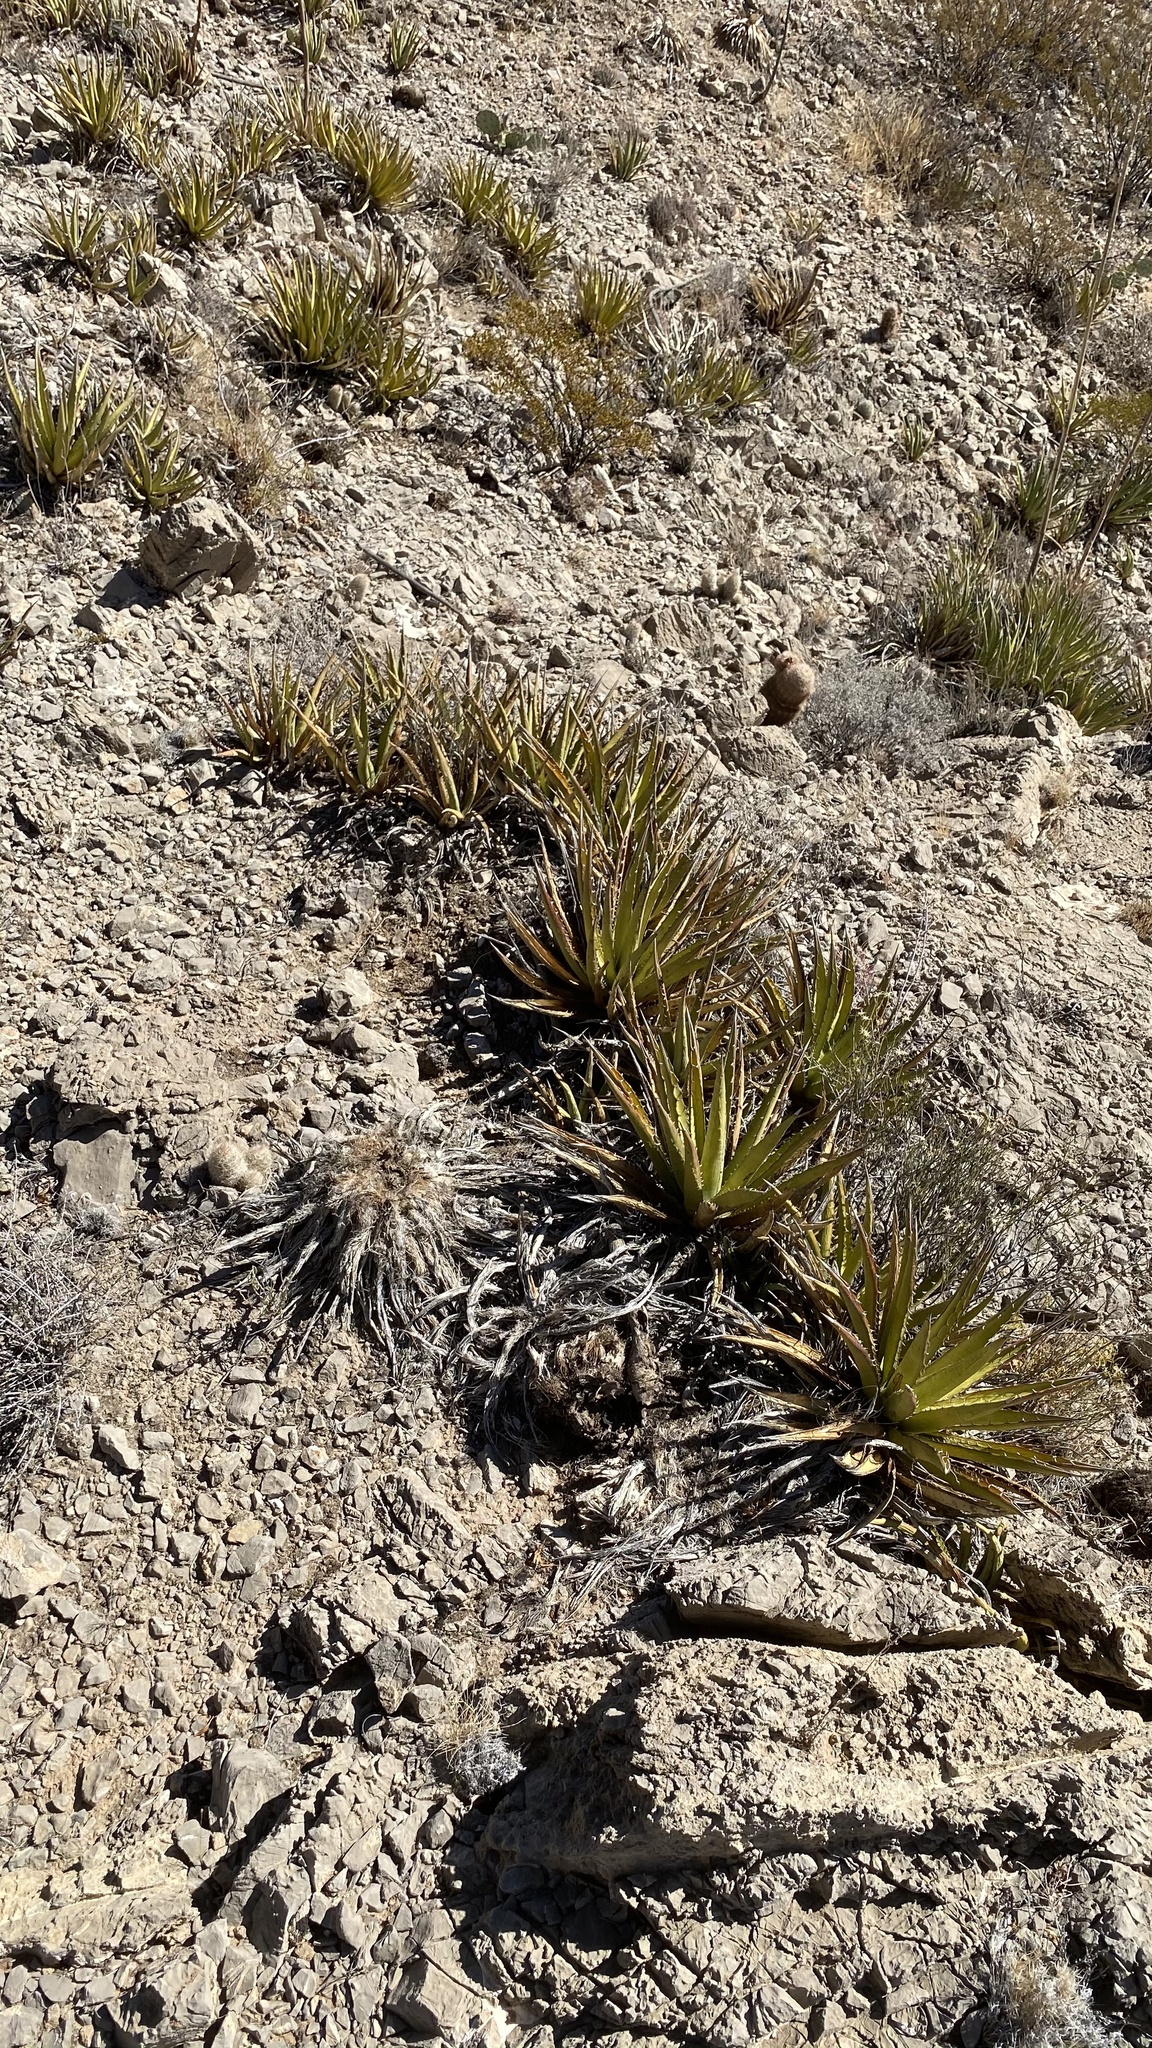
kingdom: Plantae
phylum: Tracheophyta
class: Liliopsida
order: Asparagales
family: Asparagaceae
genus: Agave
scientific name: Agave lechuguilla
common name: Lecheguilla agave
